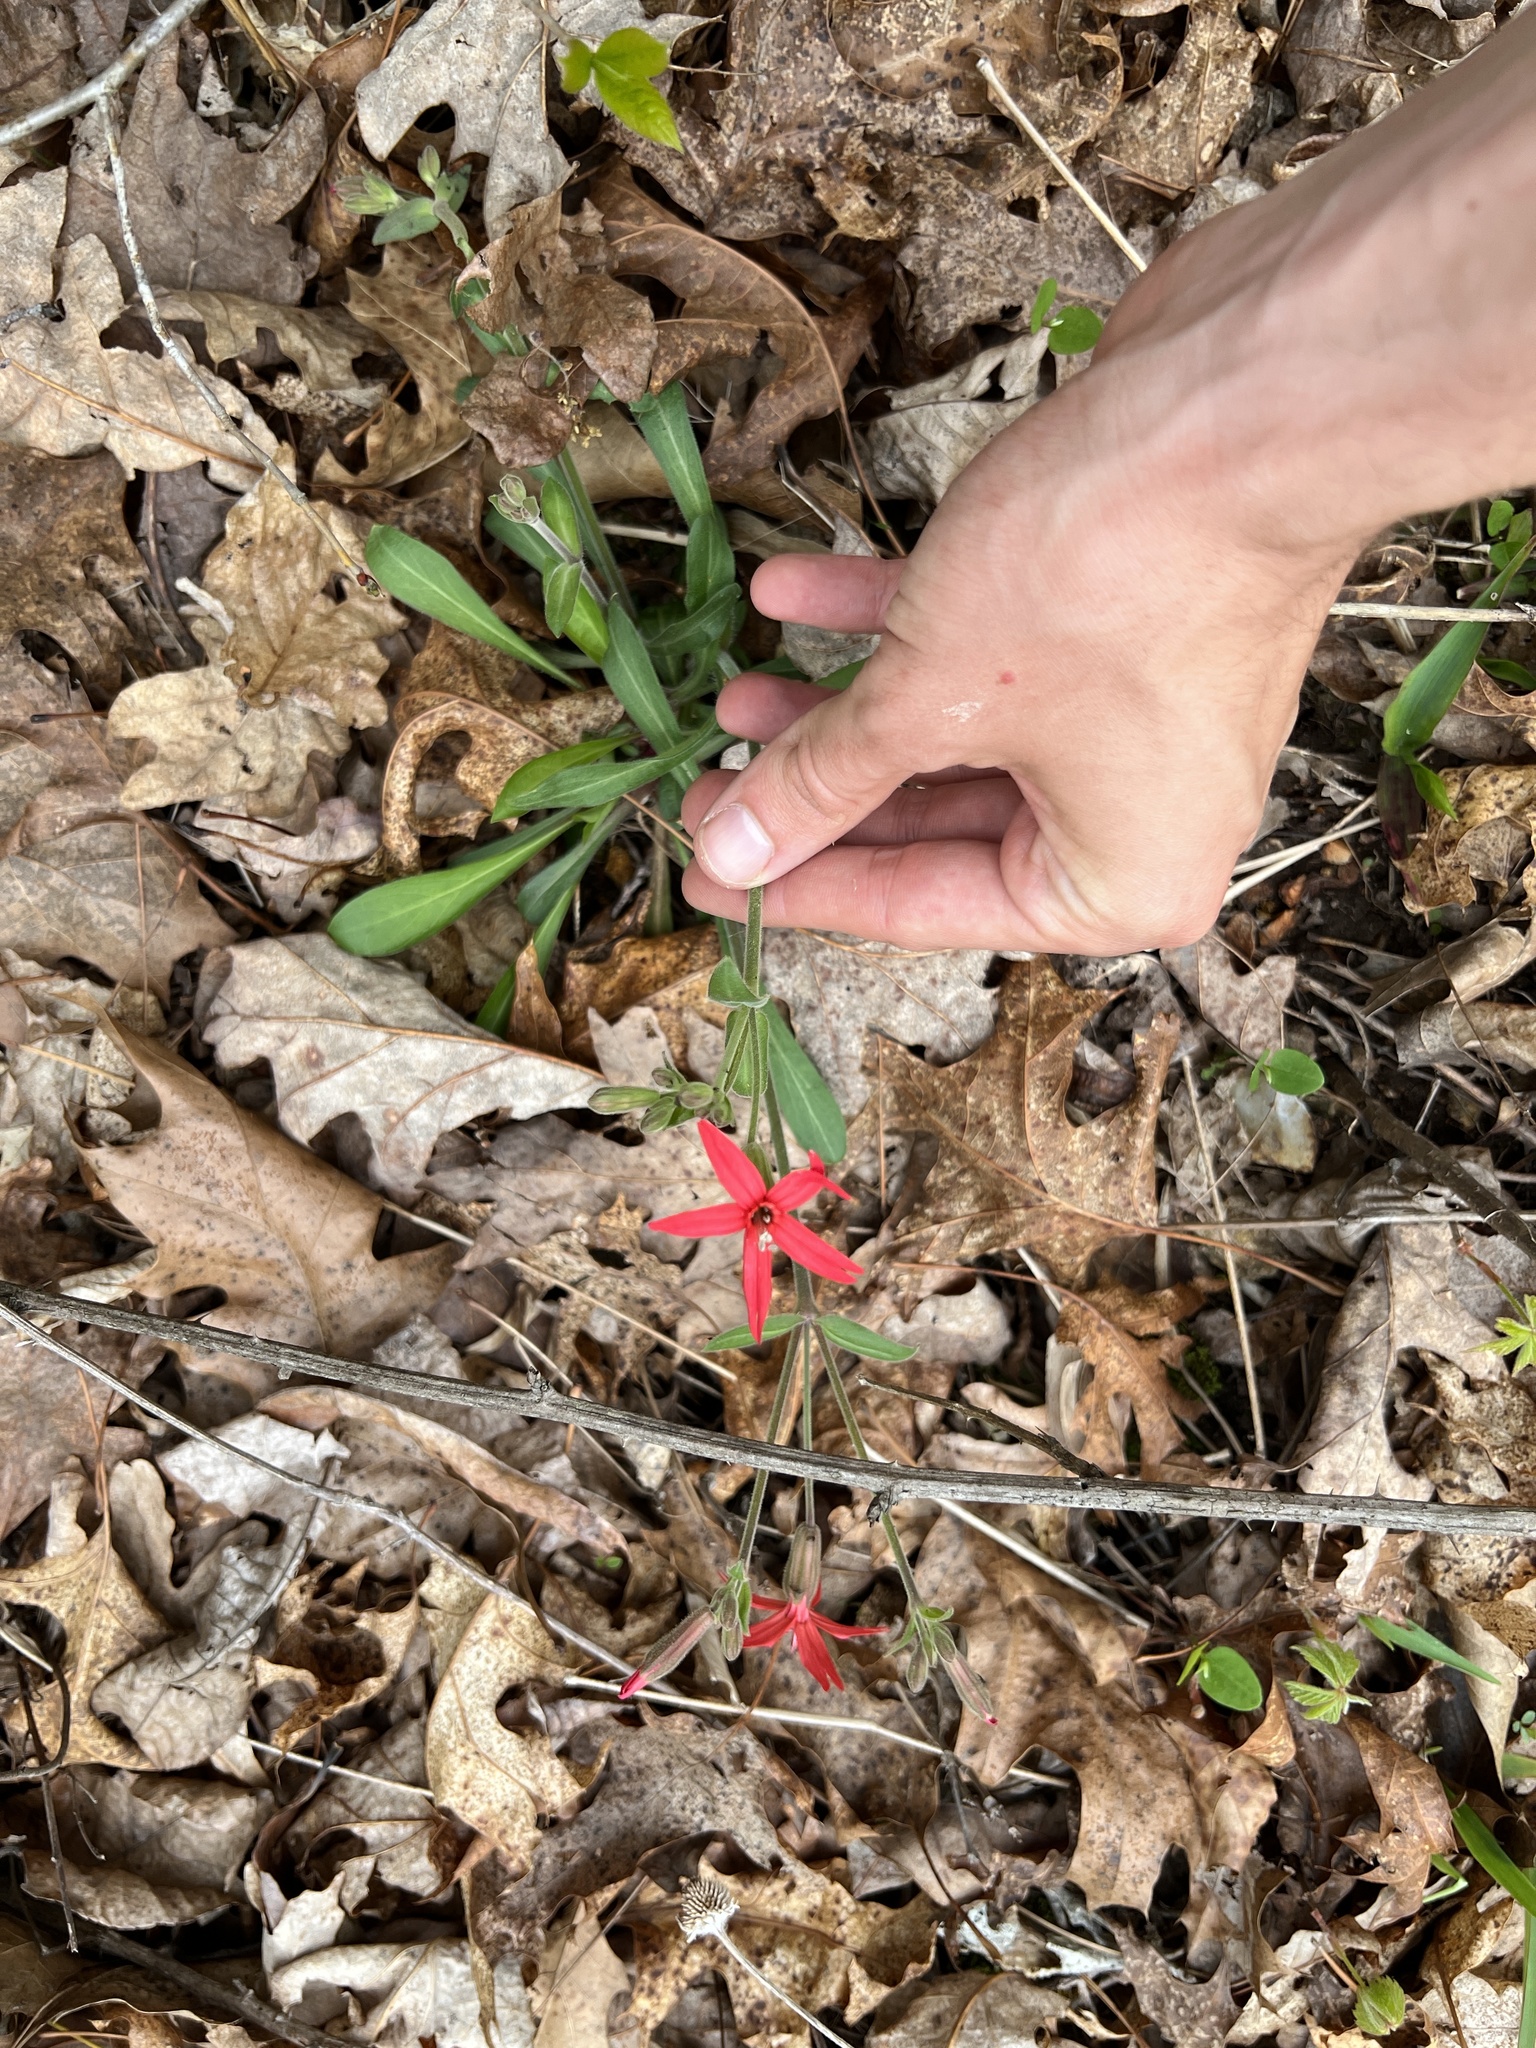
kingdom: Plantae
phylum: Tracheophyta
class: Magnoliopsida
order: Caryophyllales
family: Caryophyllaceae
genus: Silene
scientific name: Silene virginica
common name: Fire-pink
